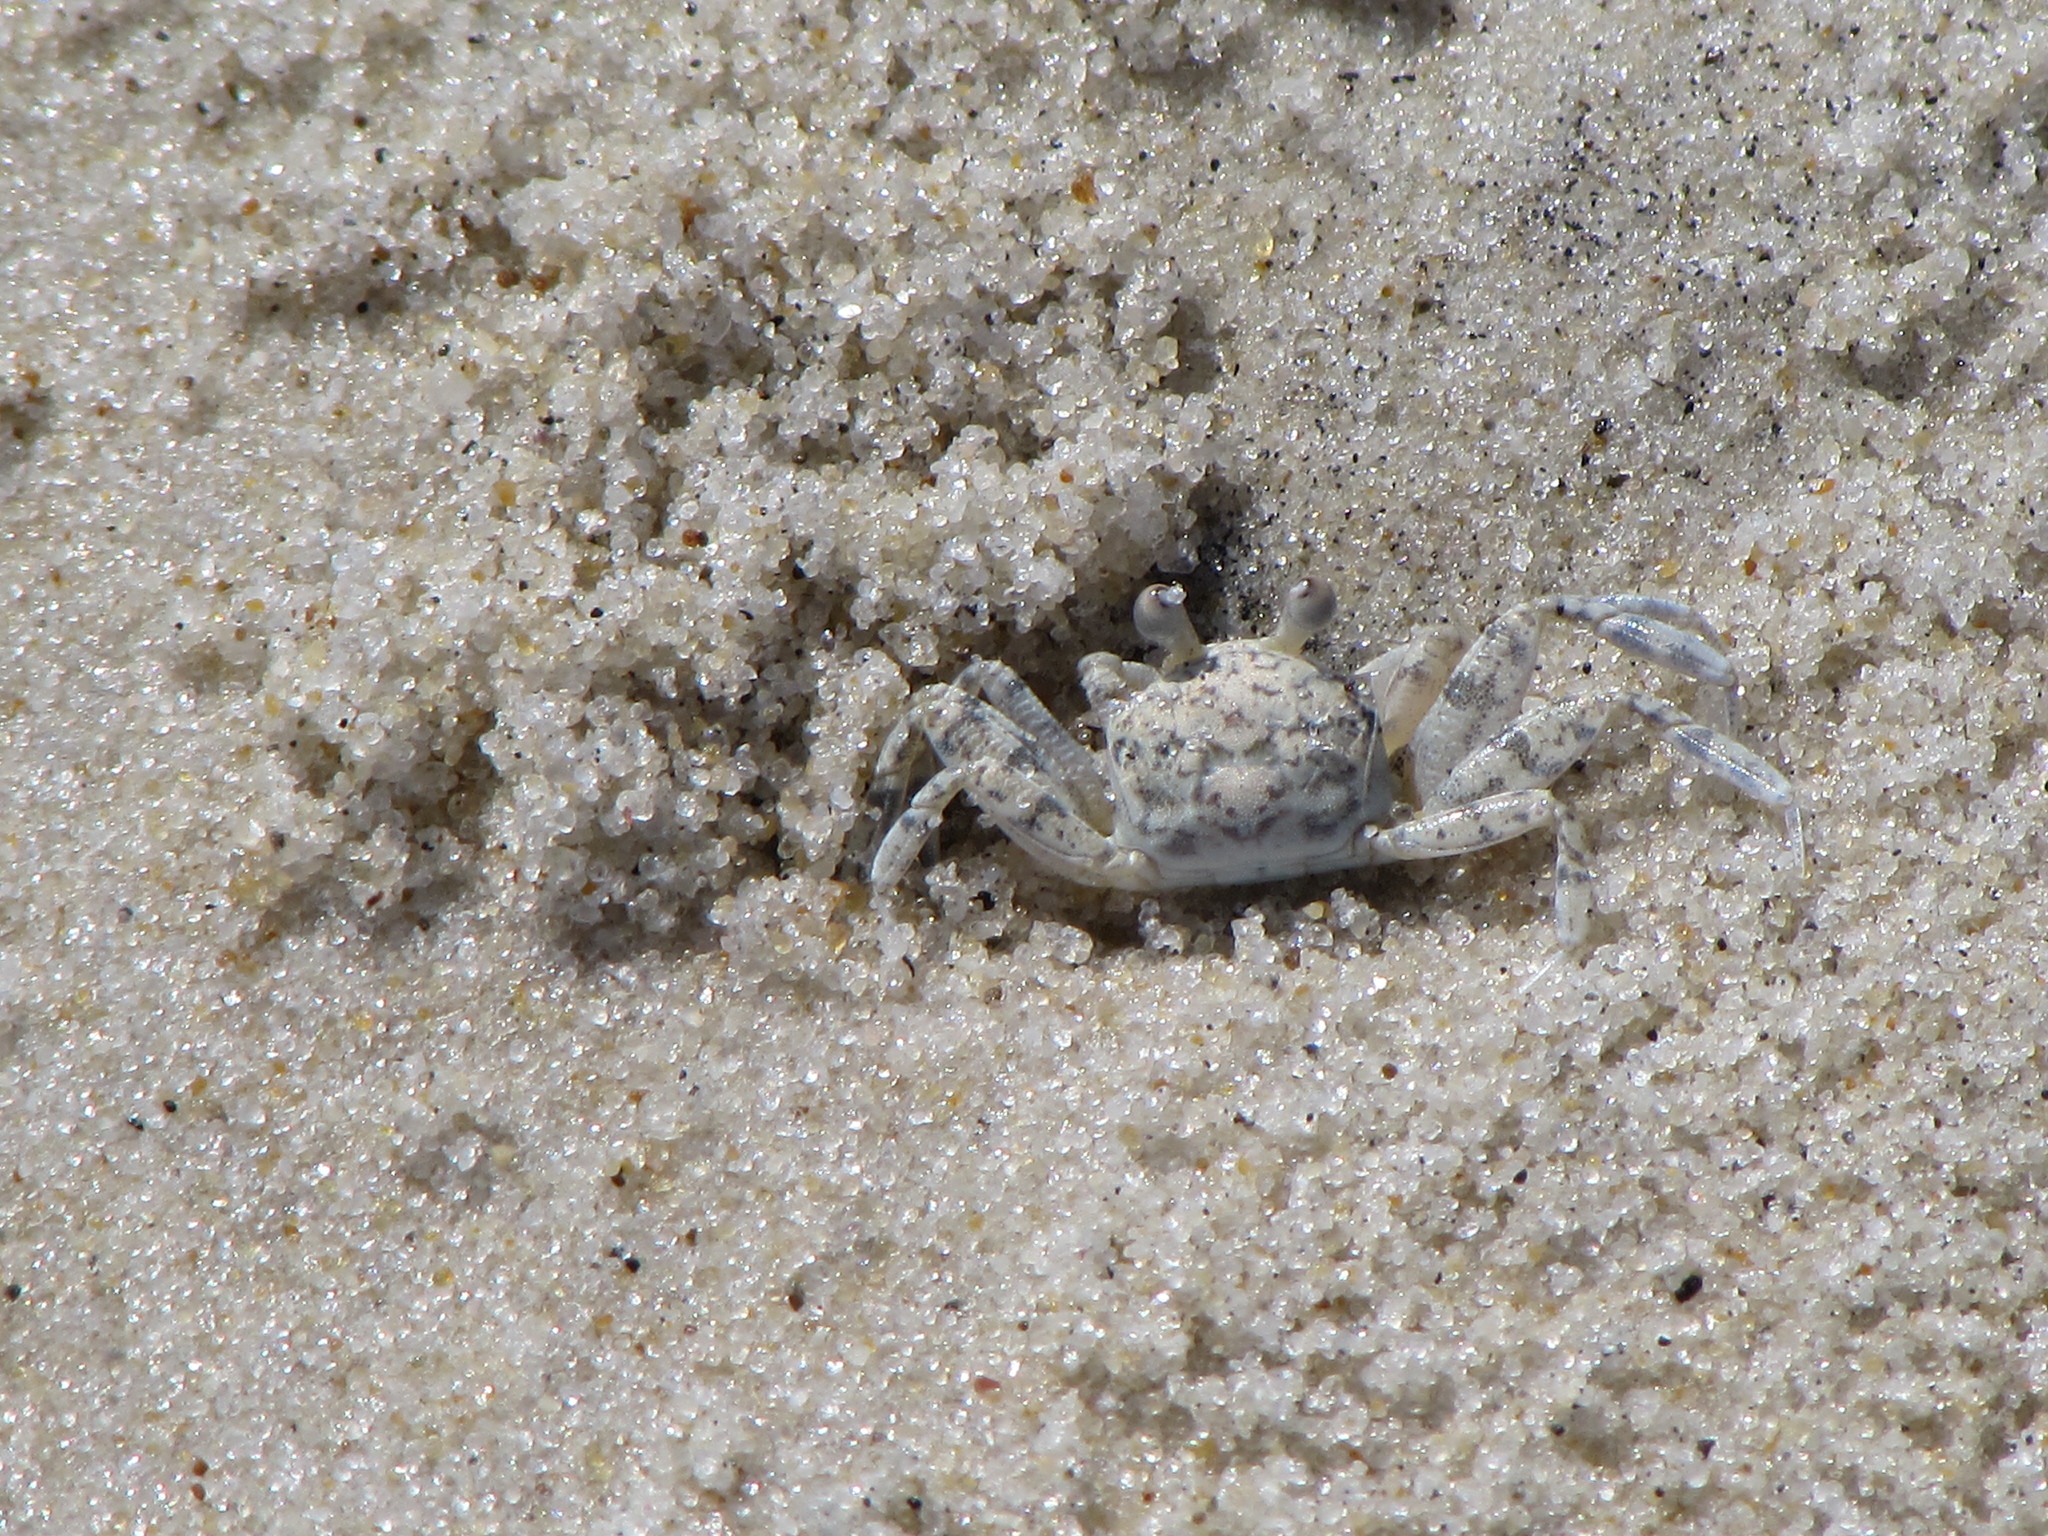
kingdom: Animalia
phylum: Arthropoda
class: Malacostraca
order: Decapoda
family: Ocypodidae
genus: Ocypode
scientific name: Ocypode quadrata
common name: Ghost crab
